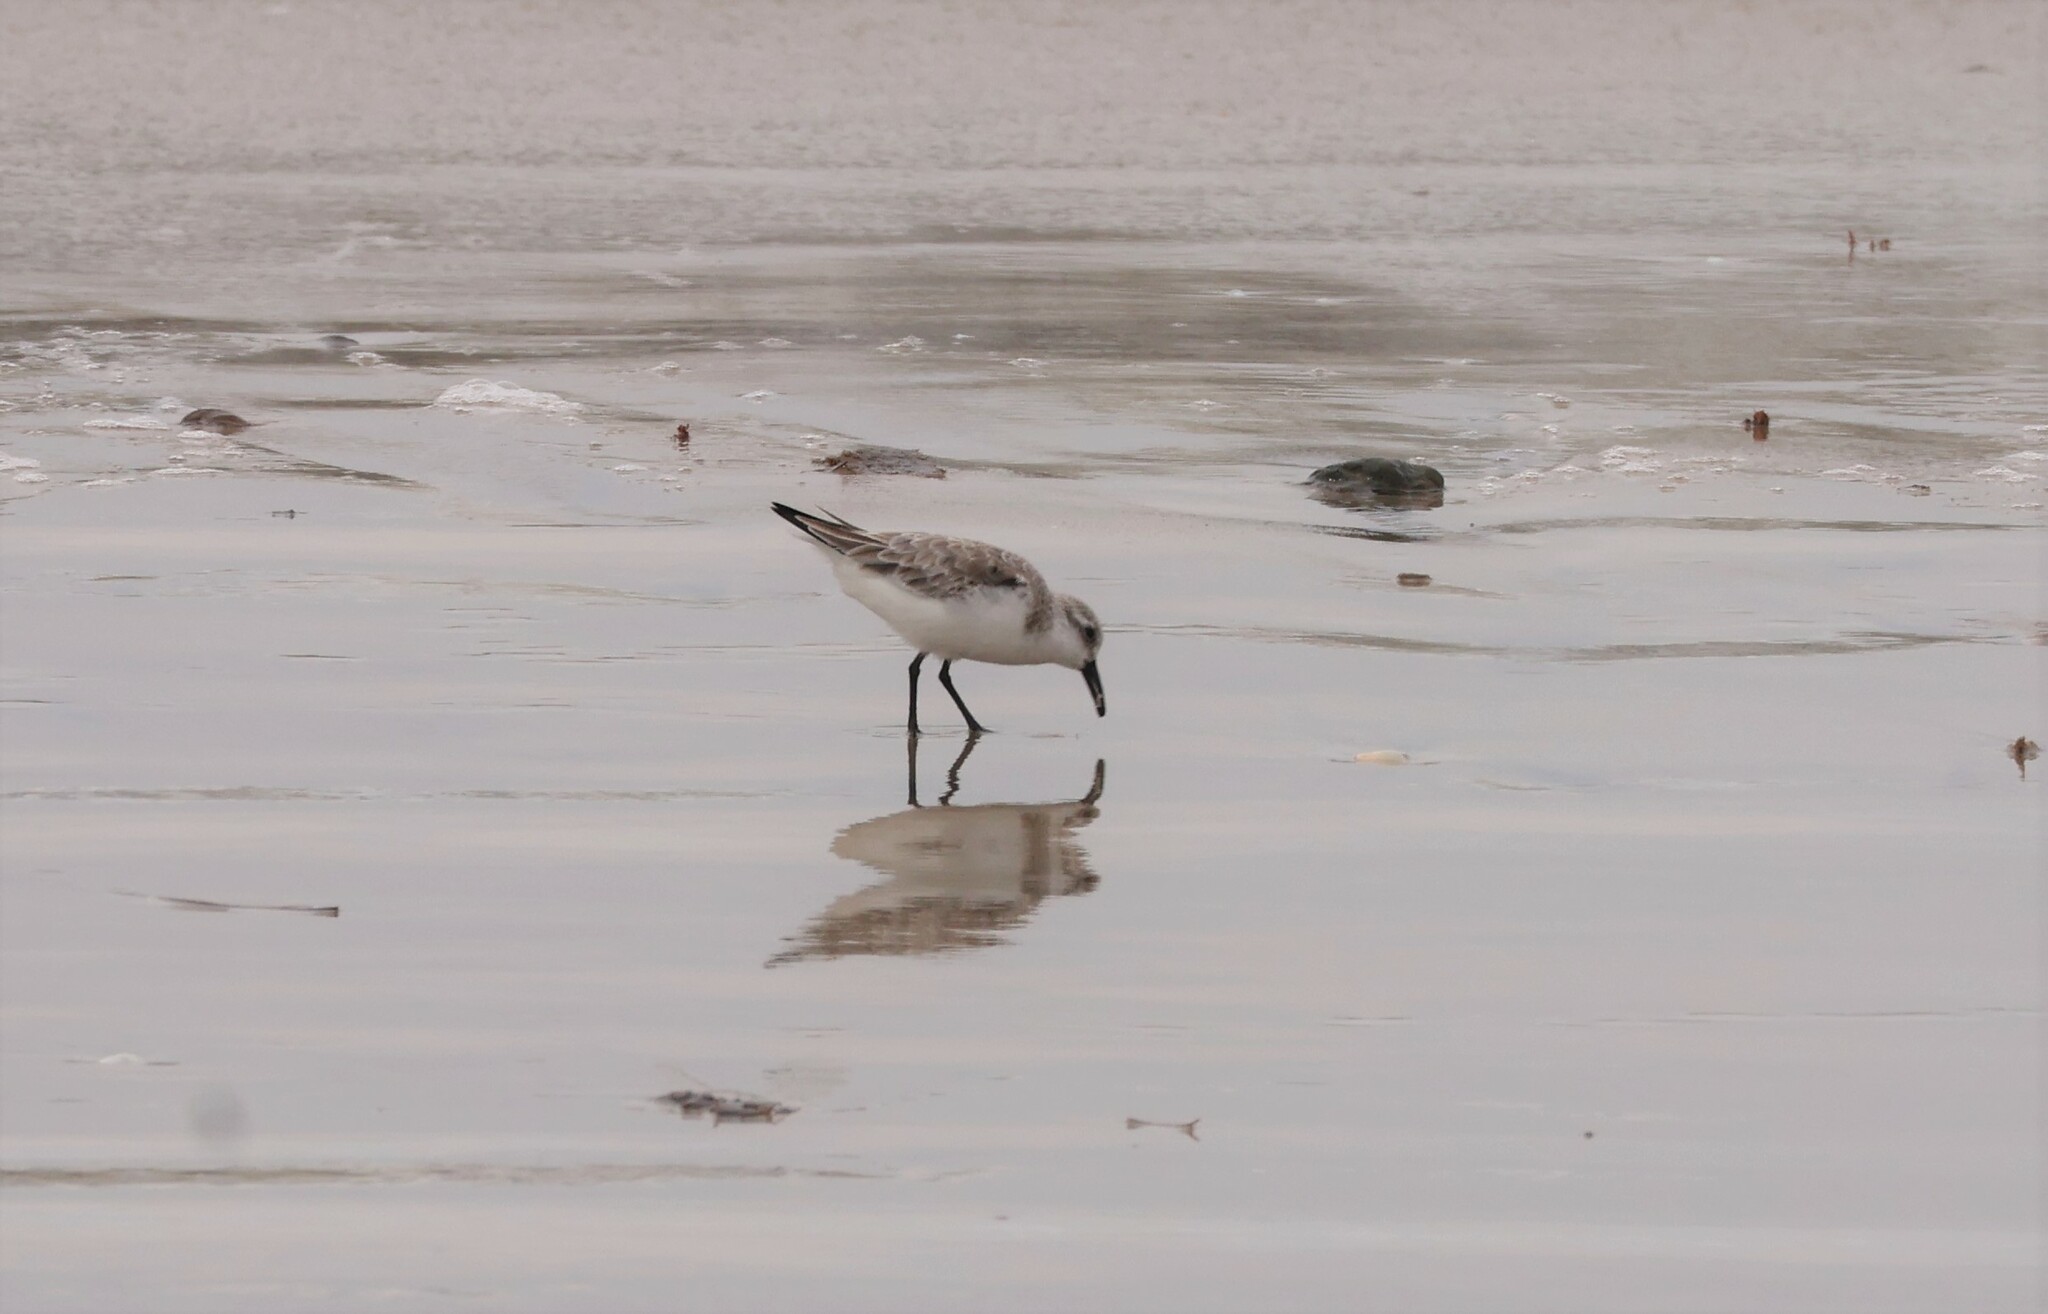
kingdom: Animalia
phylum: Chordata
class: Aves
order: Charadriiformes
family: Scolopacidae
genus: Calidris
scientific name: Calidris alba
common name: Sanderling
